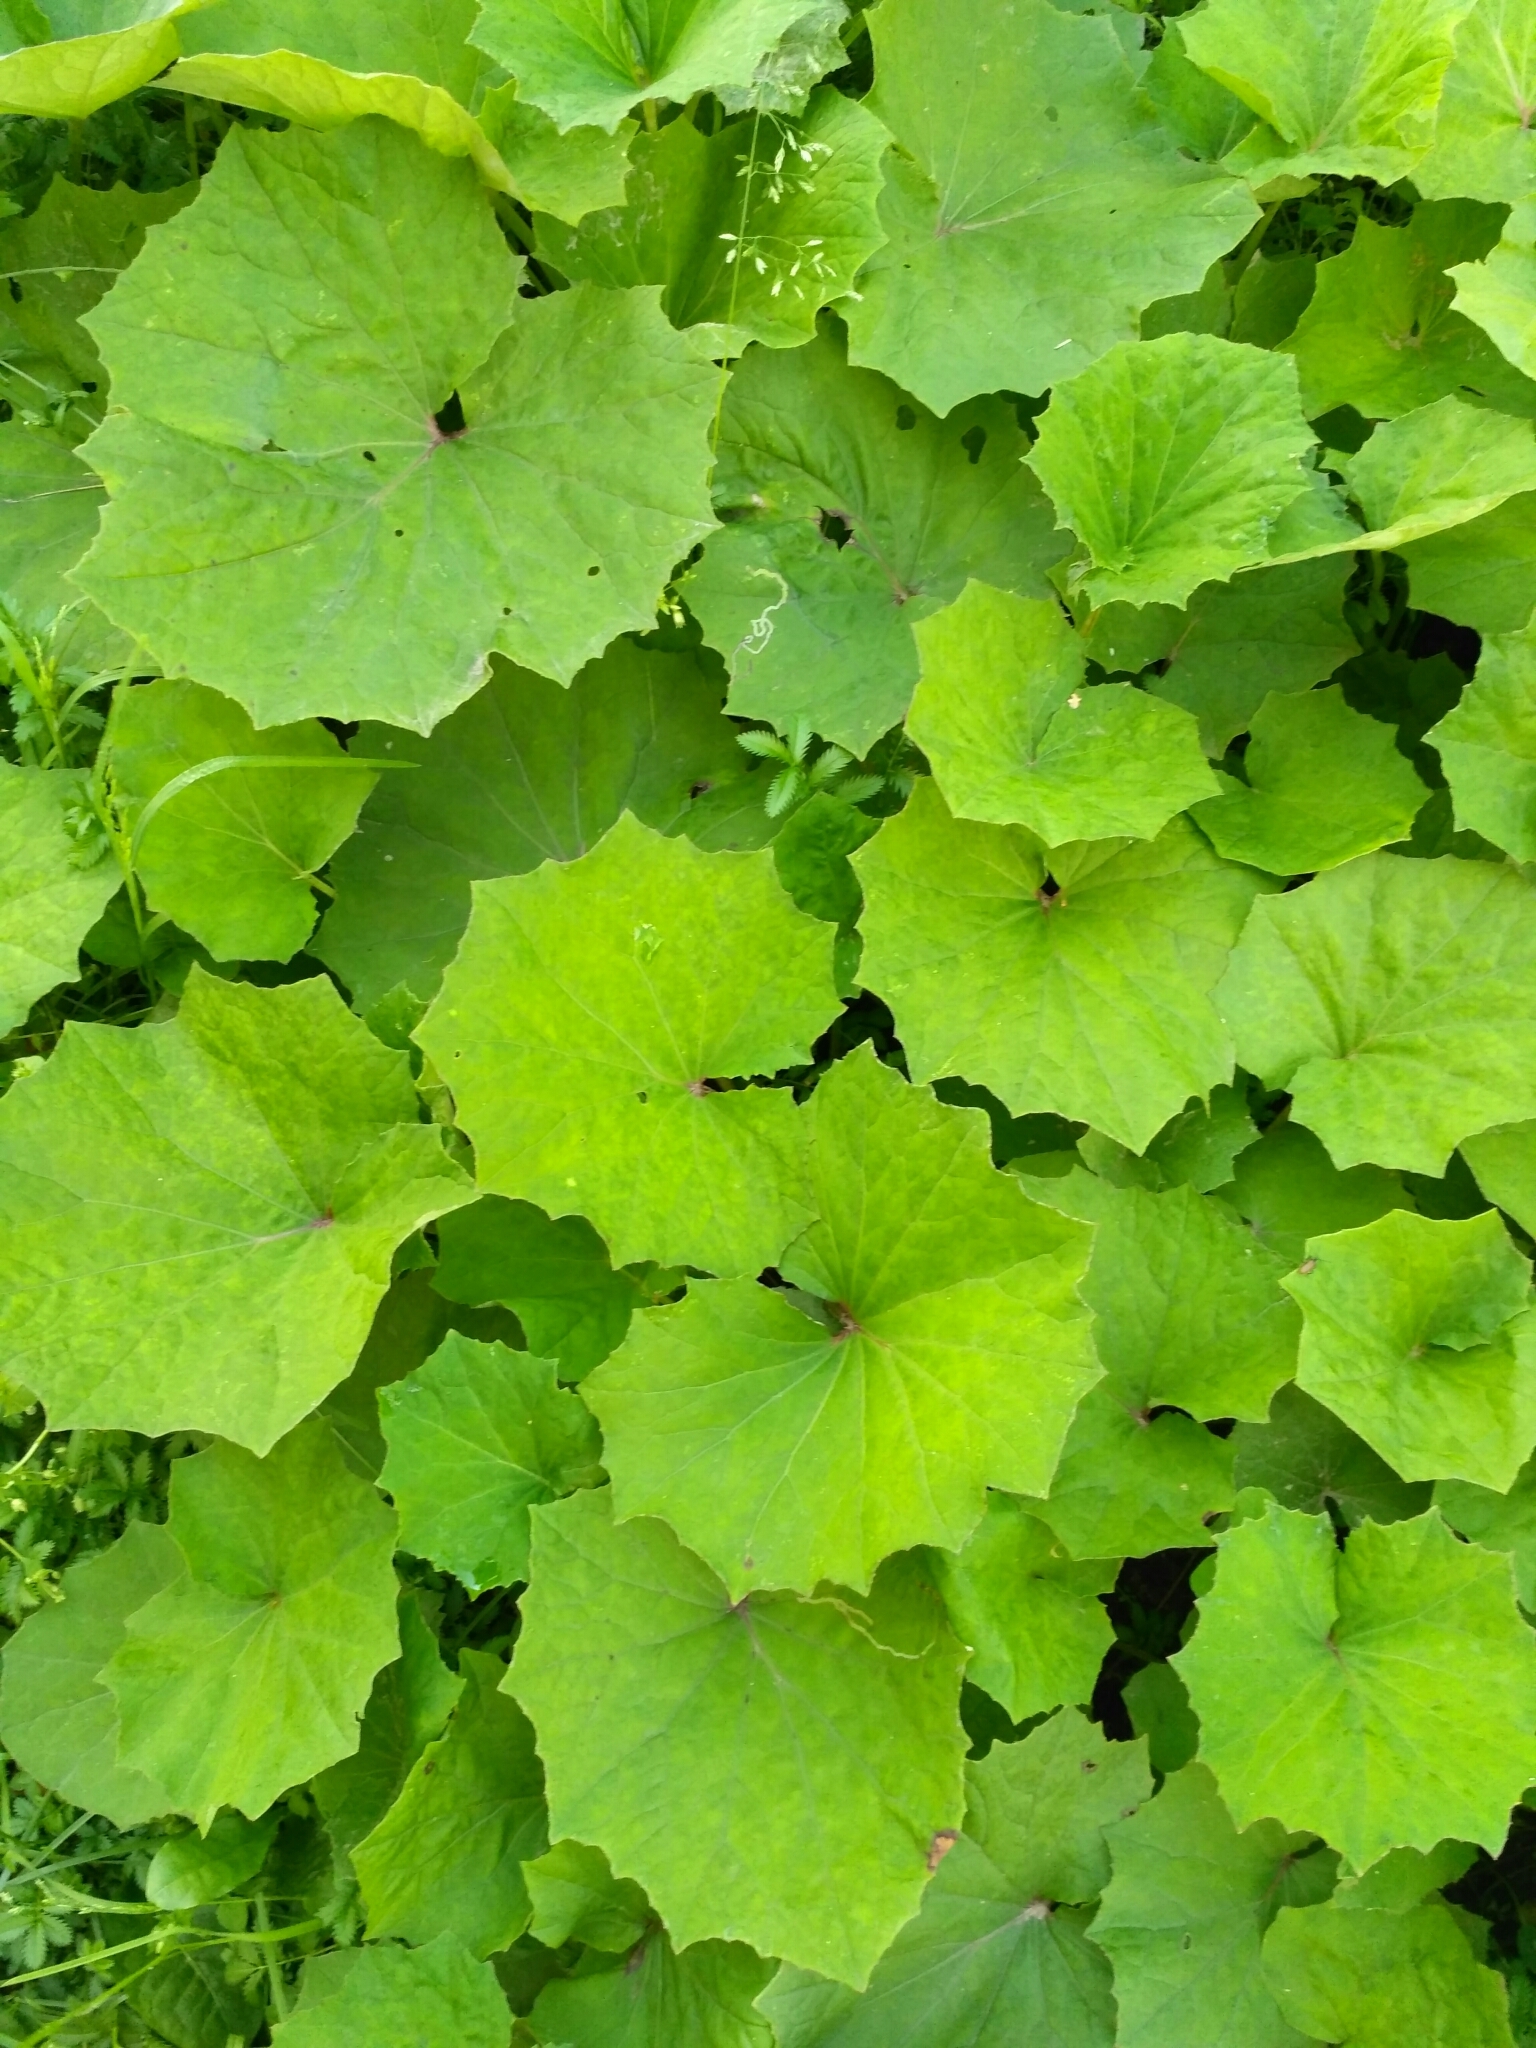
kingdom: Plantae
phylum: Tracheophyta
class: Magnoliopsida
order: Asterales
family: Asteraceae
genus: Tussilago
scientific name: Tussilago farfara
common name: Coltsfoot
